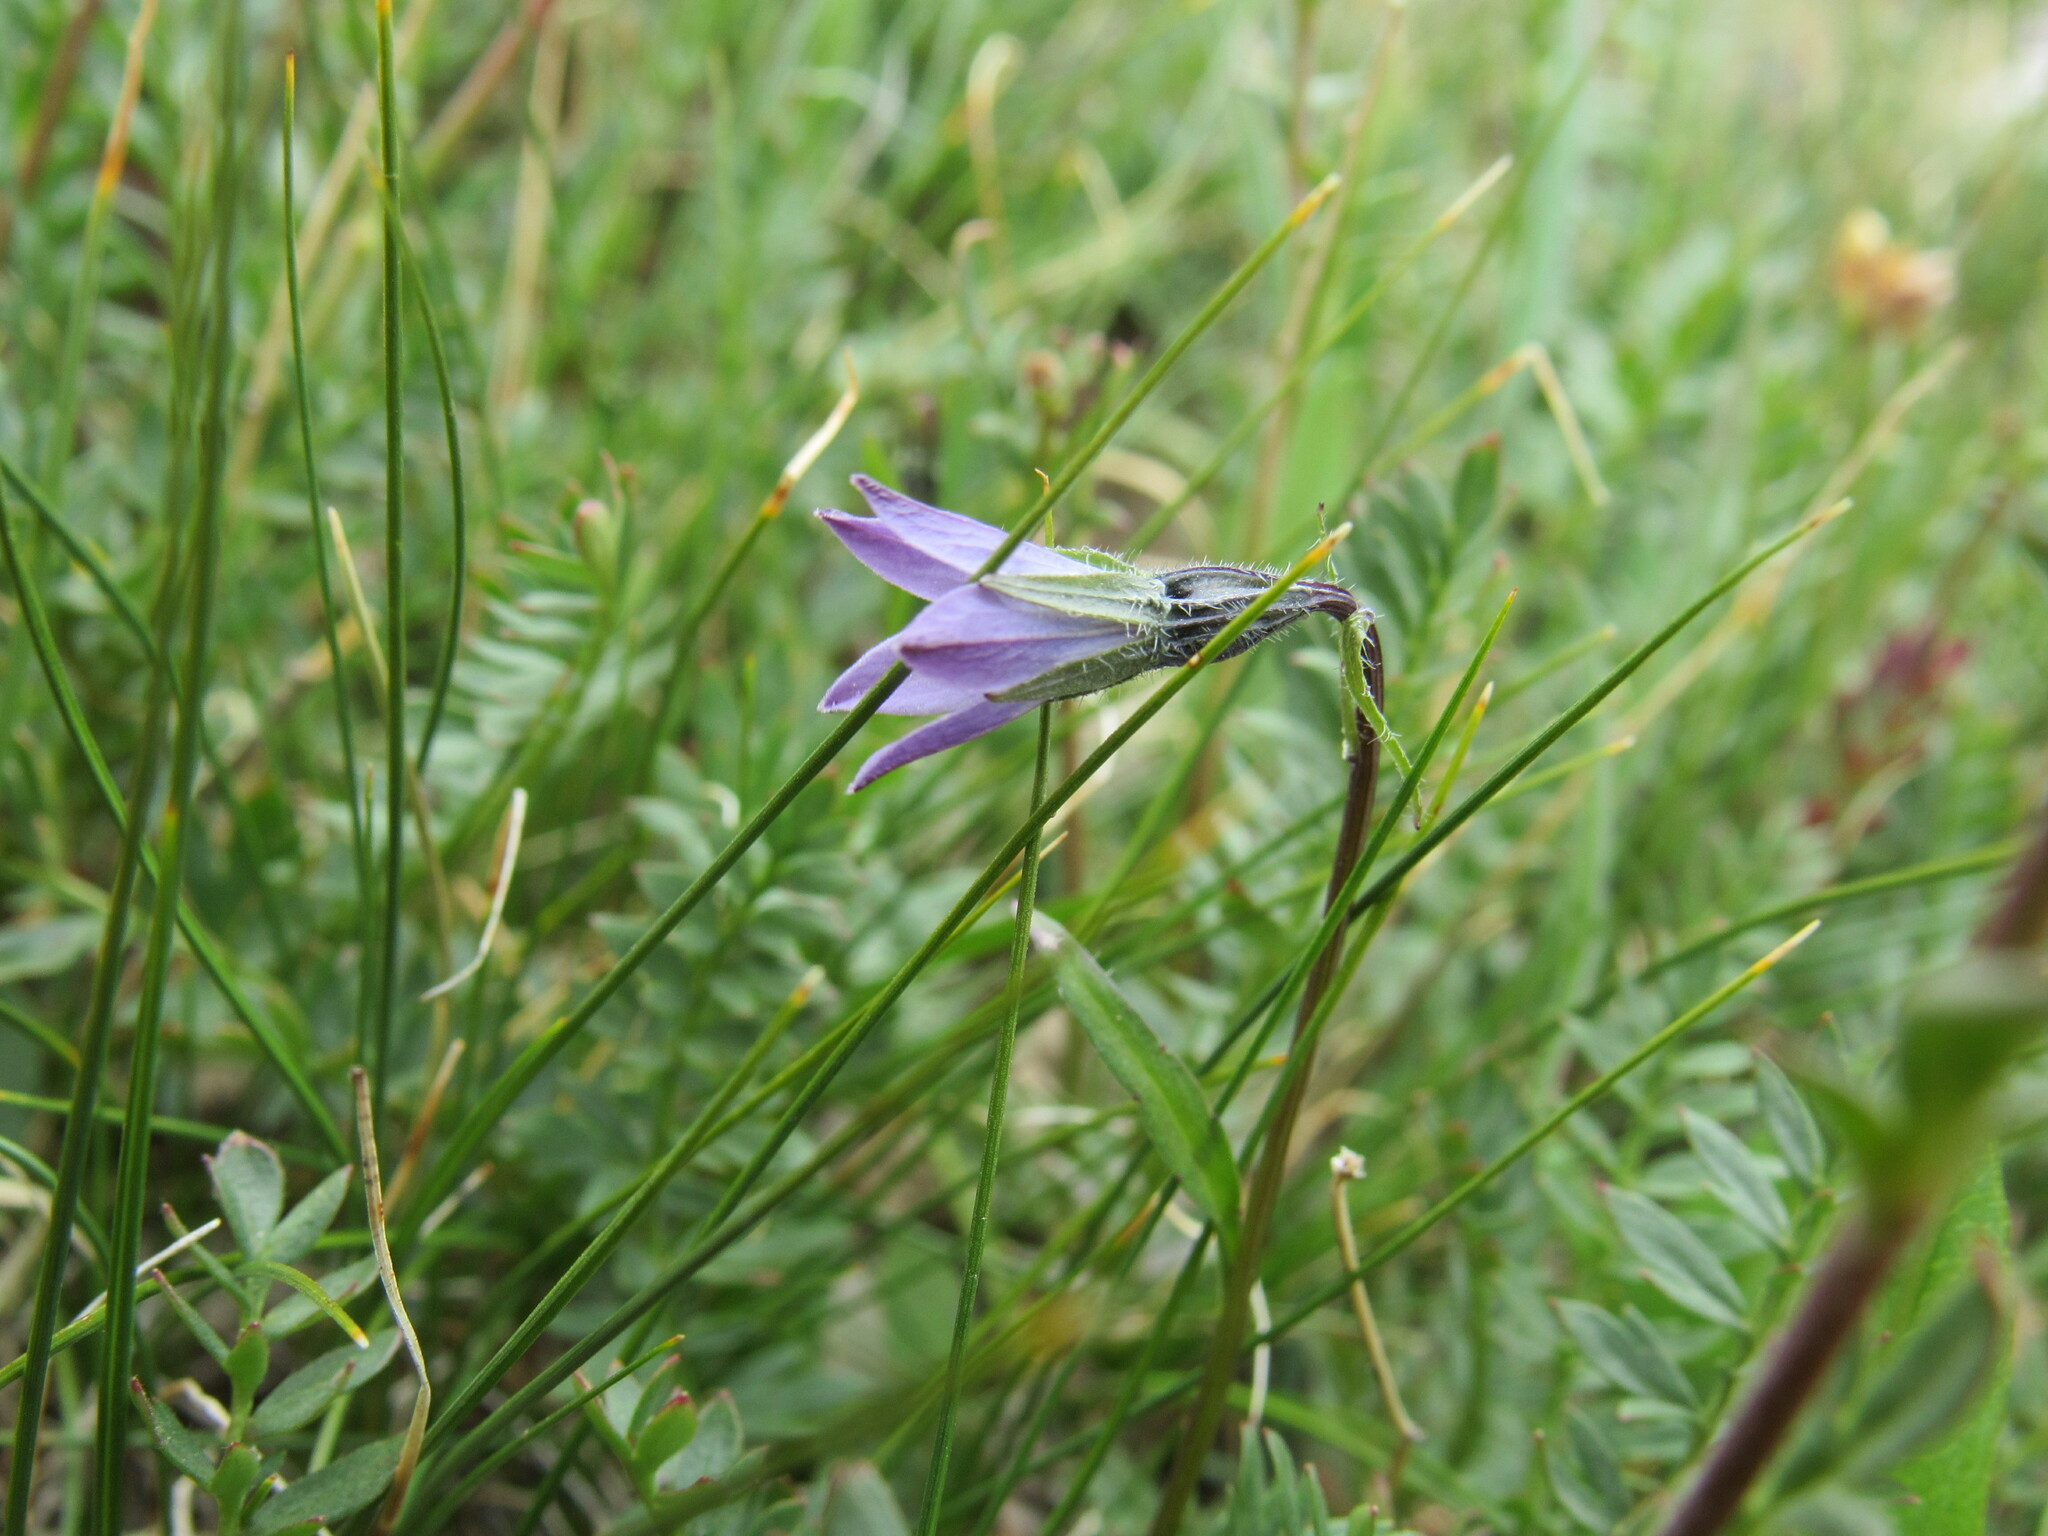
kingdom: Plantae
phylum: Tracheophyta
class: Magnoliopsida
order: Asterales
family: Campanulaceae
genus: Campanula
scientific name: Campanula uniflora
